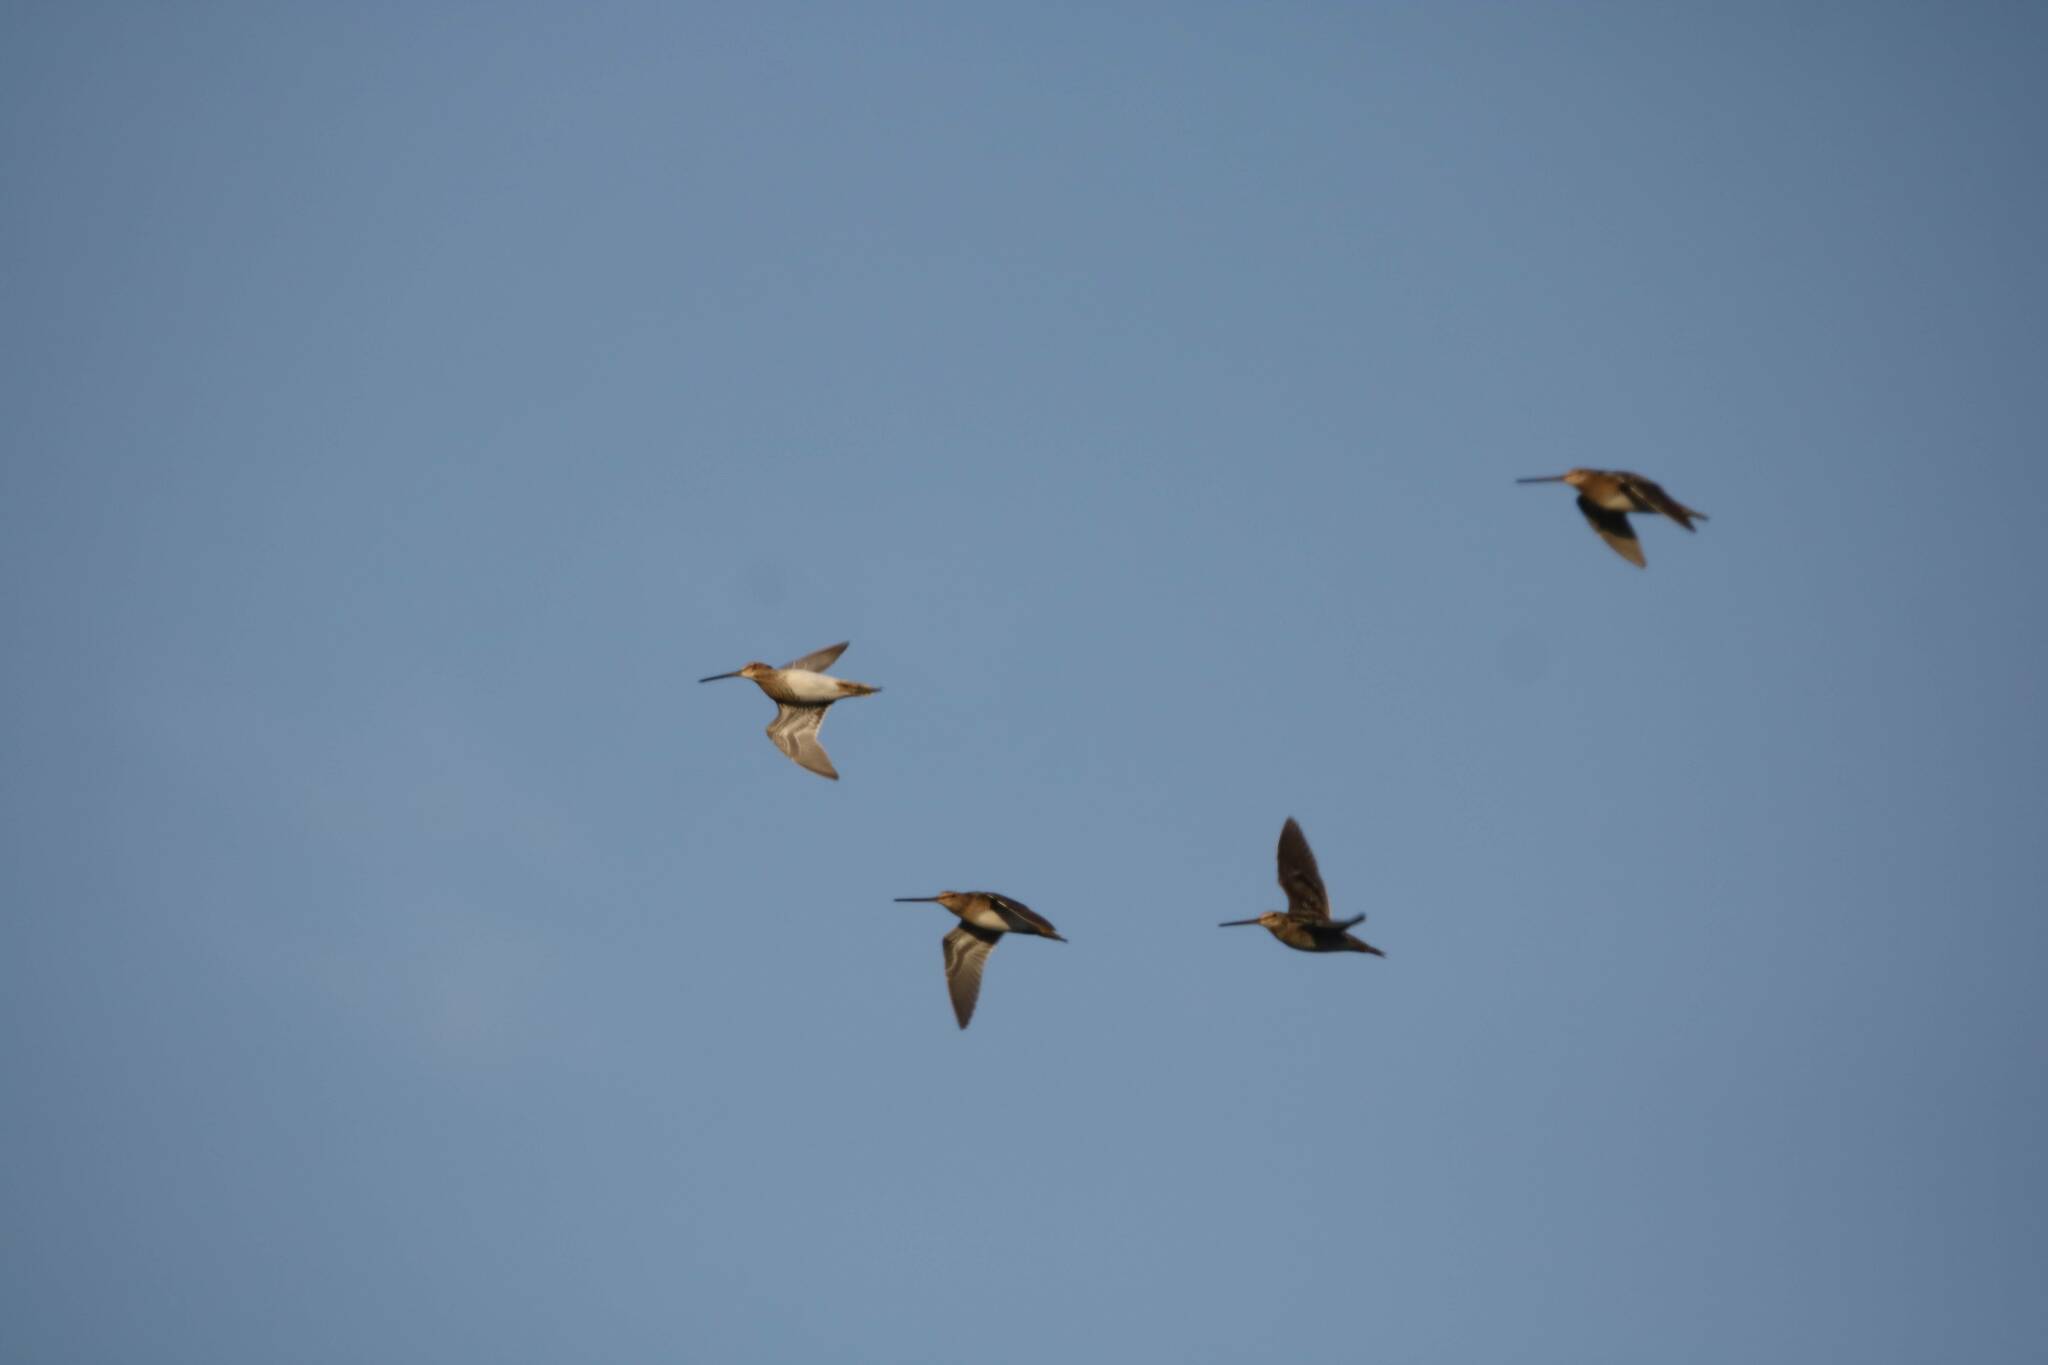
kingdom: Animalia
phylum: Chordata
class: Aves
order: Charadriiformes
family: Scolopacidae
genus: Gallinago
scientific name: Gallinago gallinago
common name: Common snipe
